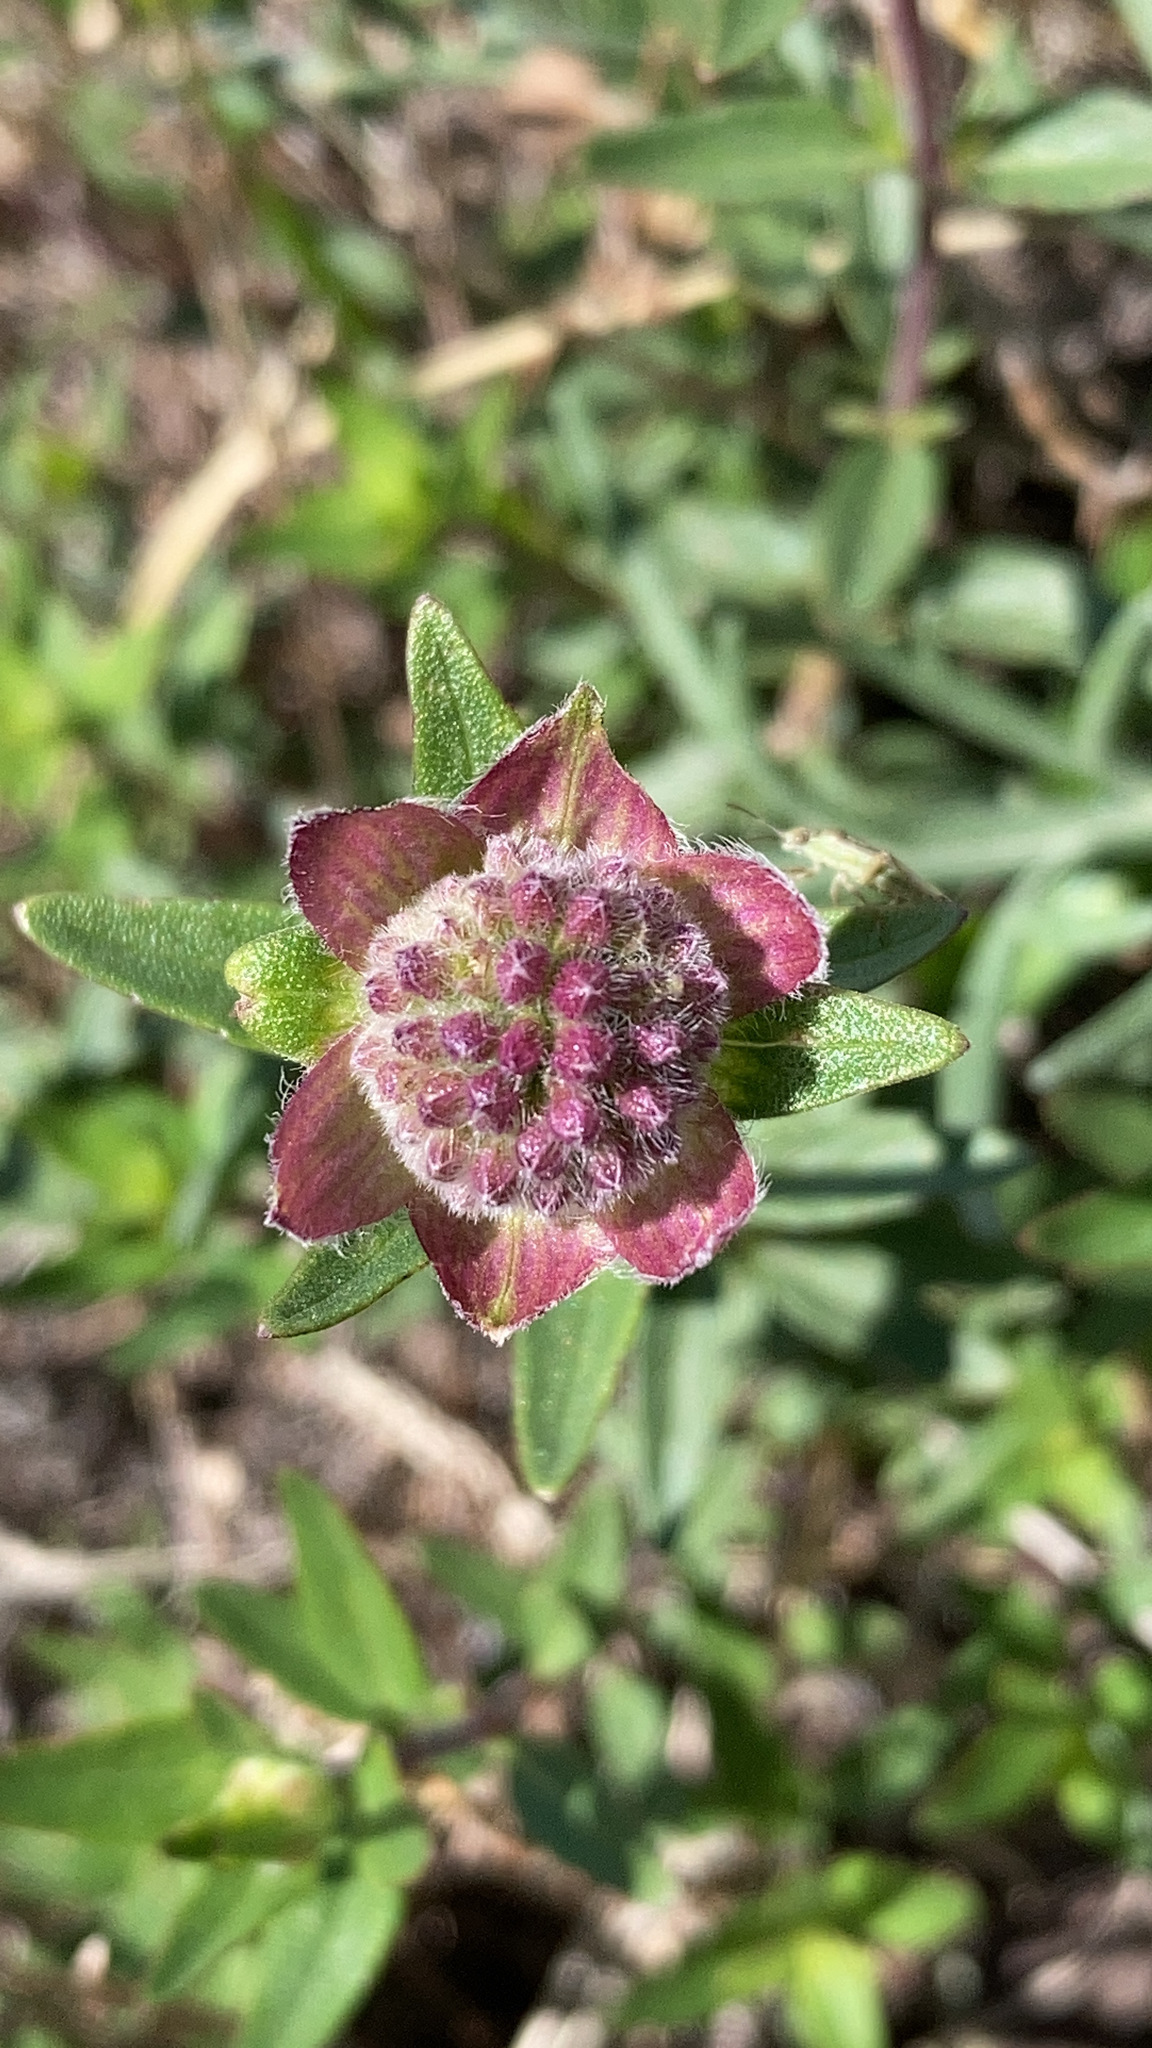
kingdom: Plantae
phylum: Tracheophyta
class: Magnoliopsida
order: Lamiales
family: Lamiaceae
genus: Monardella
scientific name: Monardella odoratissima
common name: Pacific monardella
